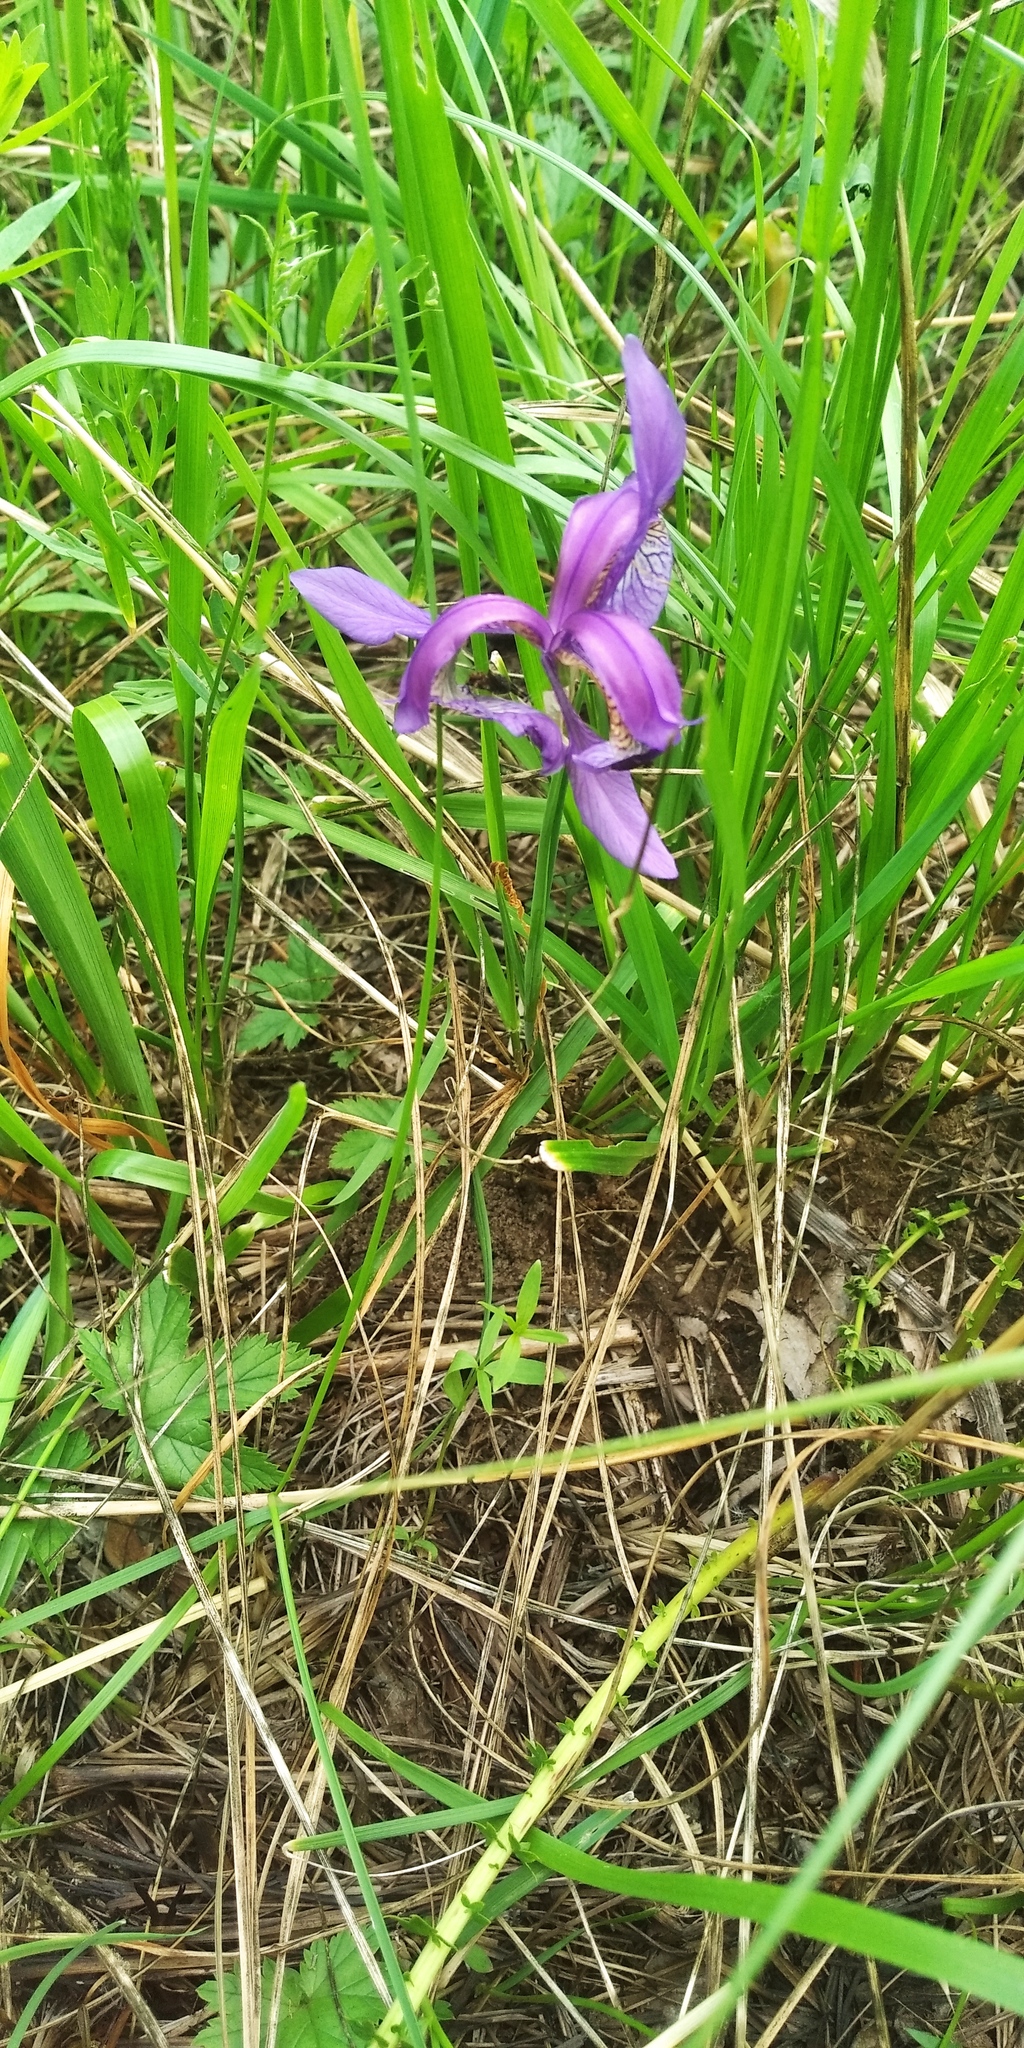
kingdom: Plantae
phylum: Tracheophyta
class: Liliopsida
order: Asparagales
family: Iridaceae
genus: Iris
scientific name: Iris sibirica
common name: Siberian iris
